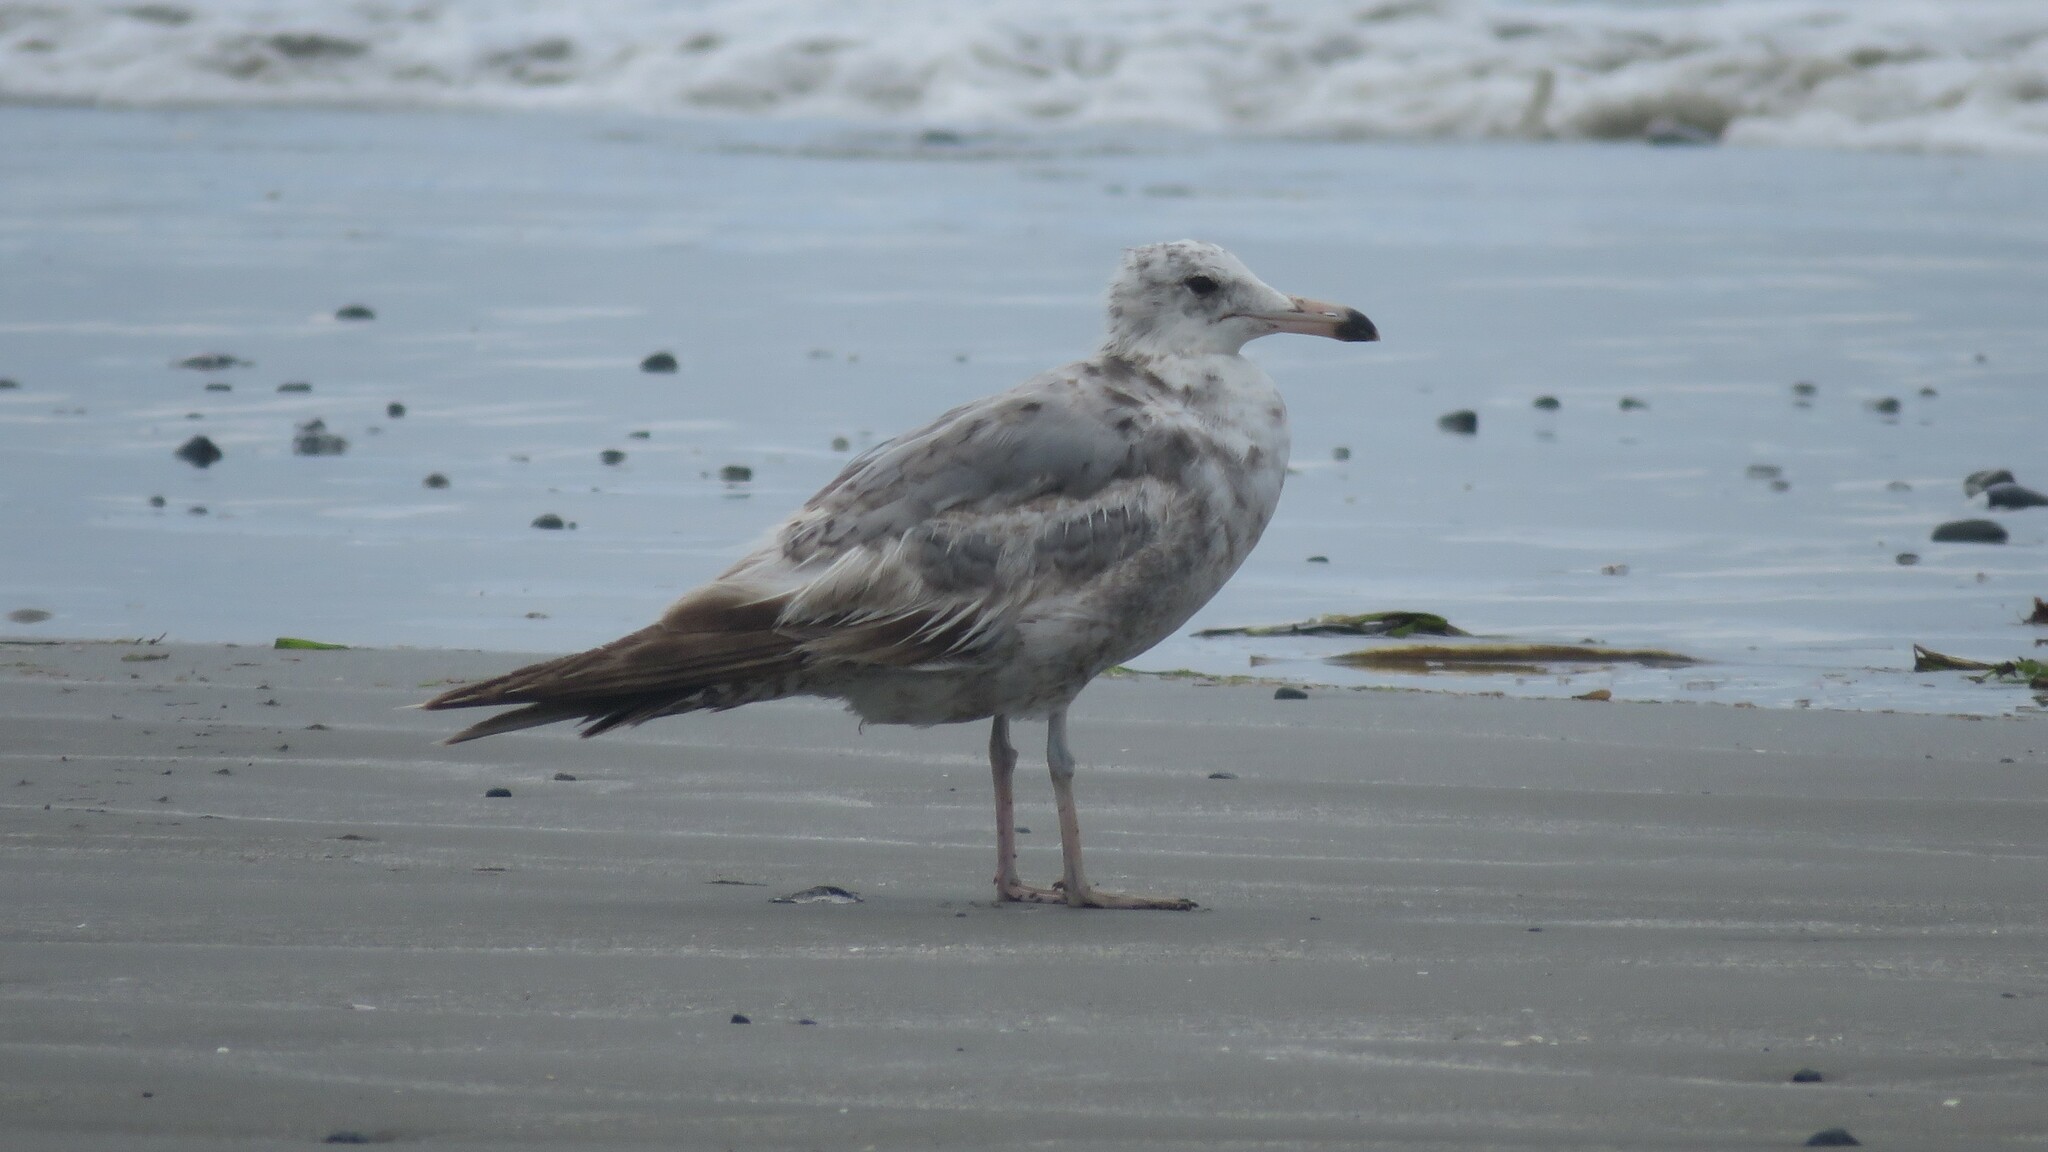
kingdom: Animalia
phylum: Chordata
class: Aves
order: Charadriiformes
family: Laridae
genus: Larus
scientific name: Larus californicus
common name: California gull
